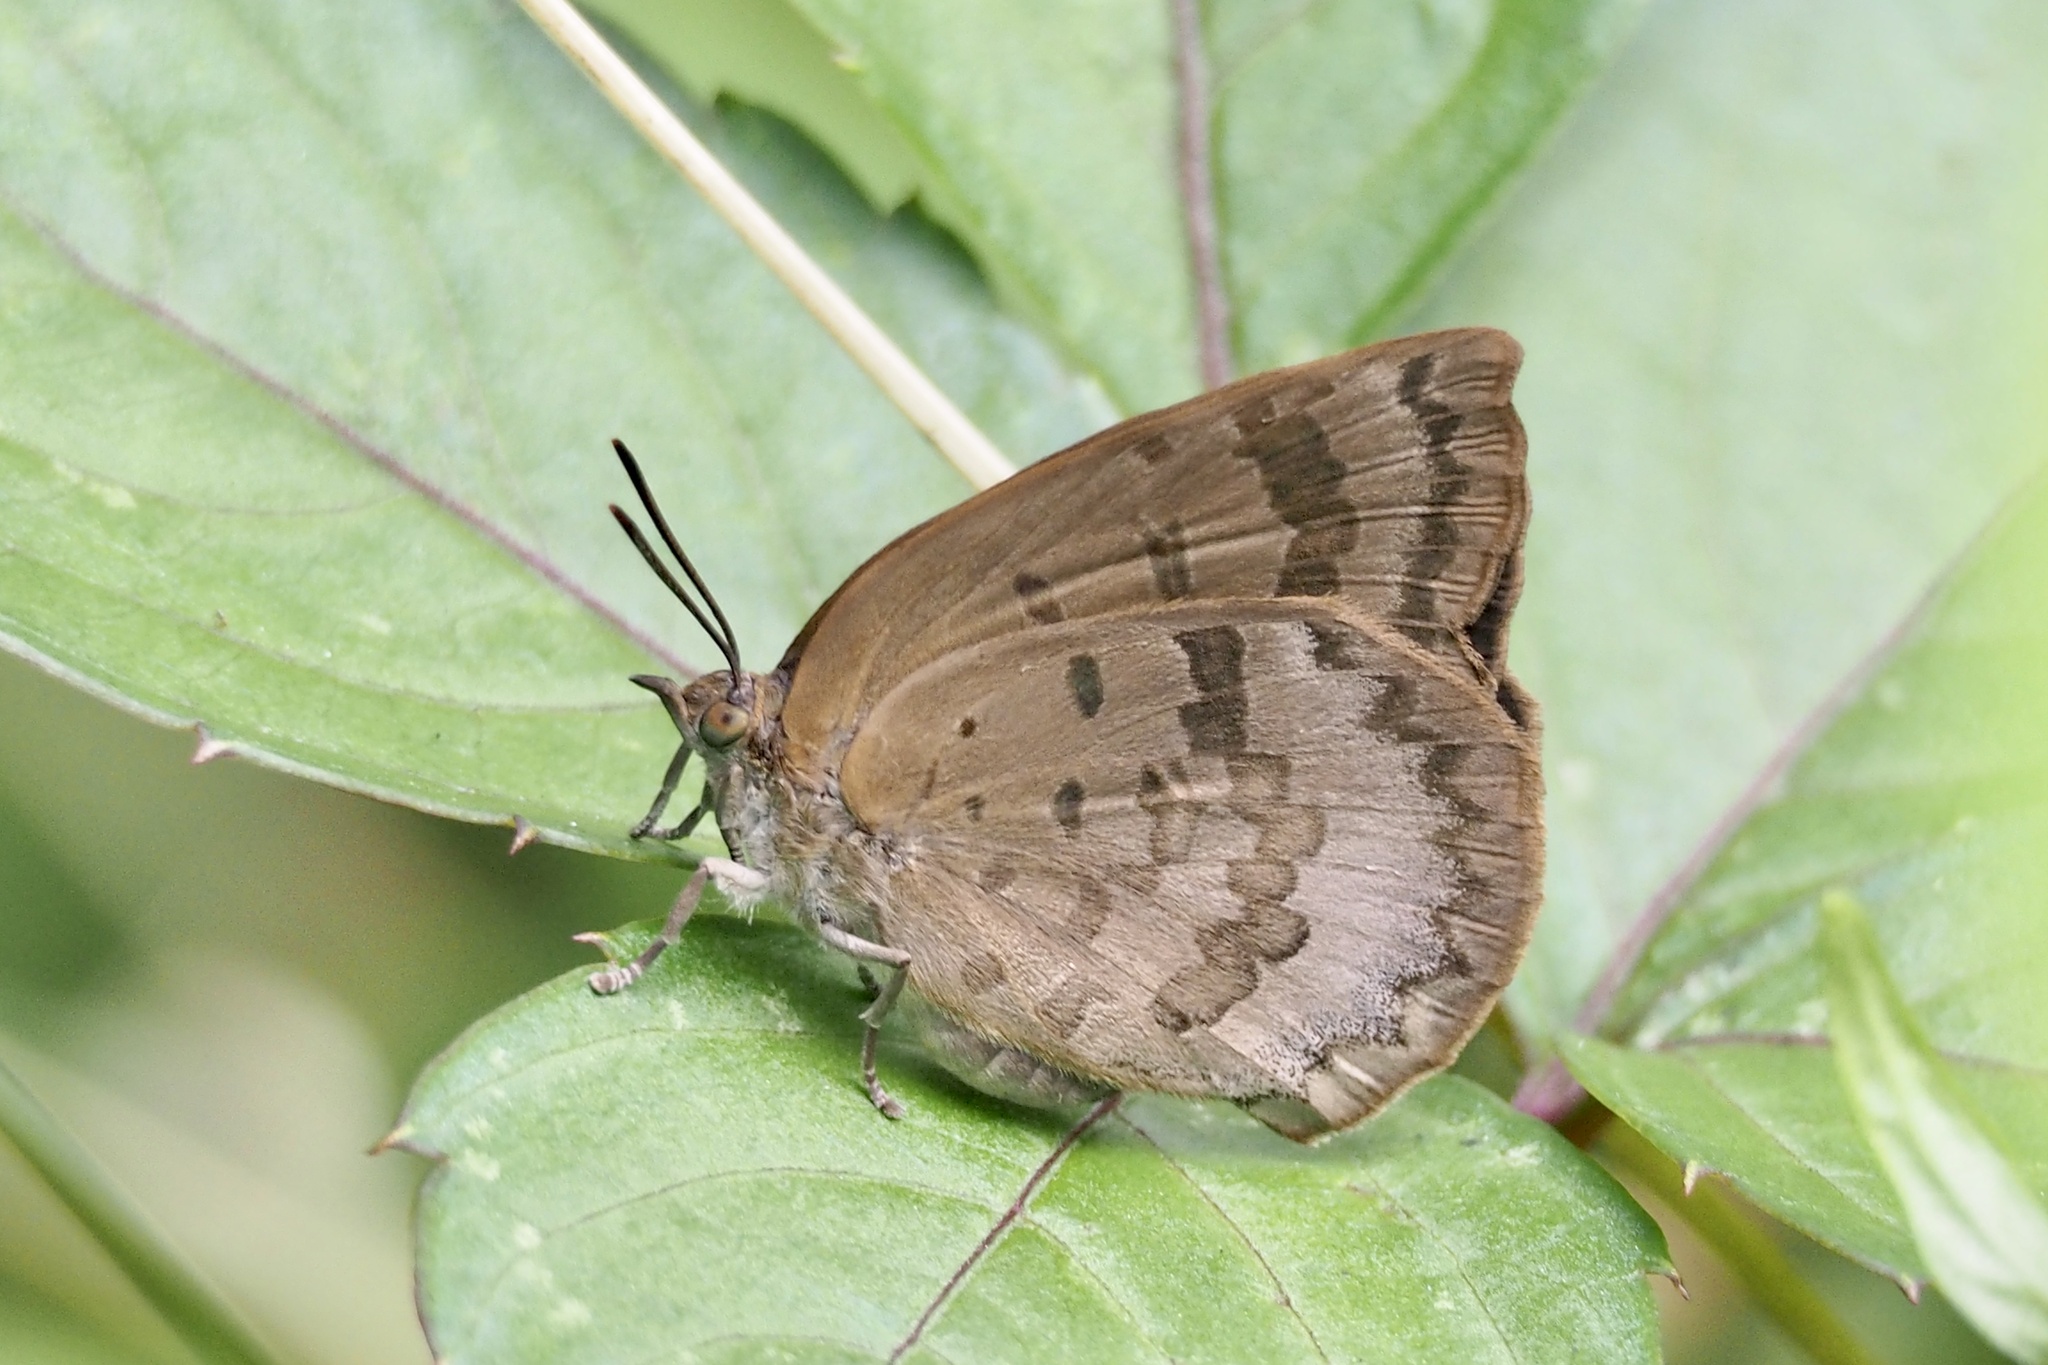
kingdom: Animalia
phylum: Arthropoda
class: Insecta
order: Lepidoptera
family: Lycaenidae
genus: Arhopala
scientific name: Arhopala japonica
